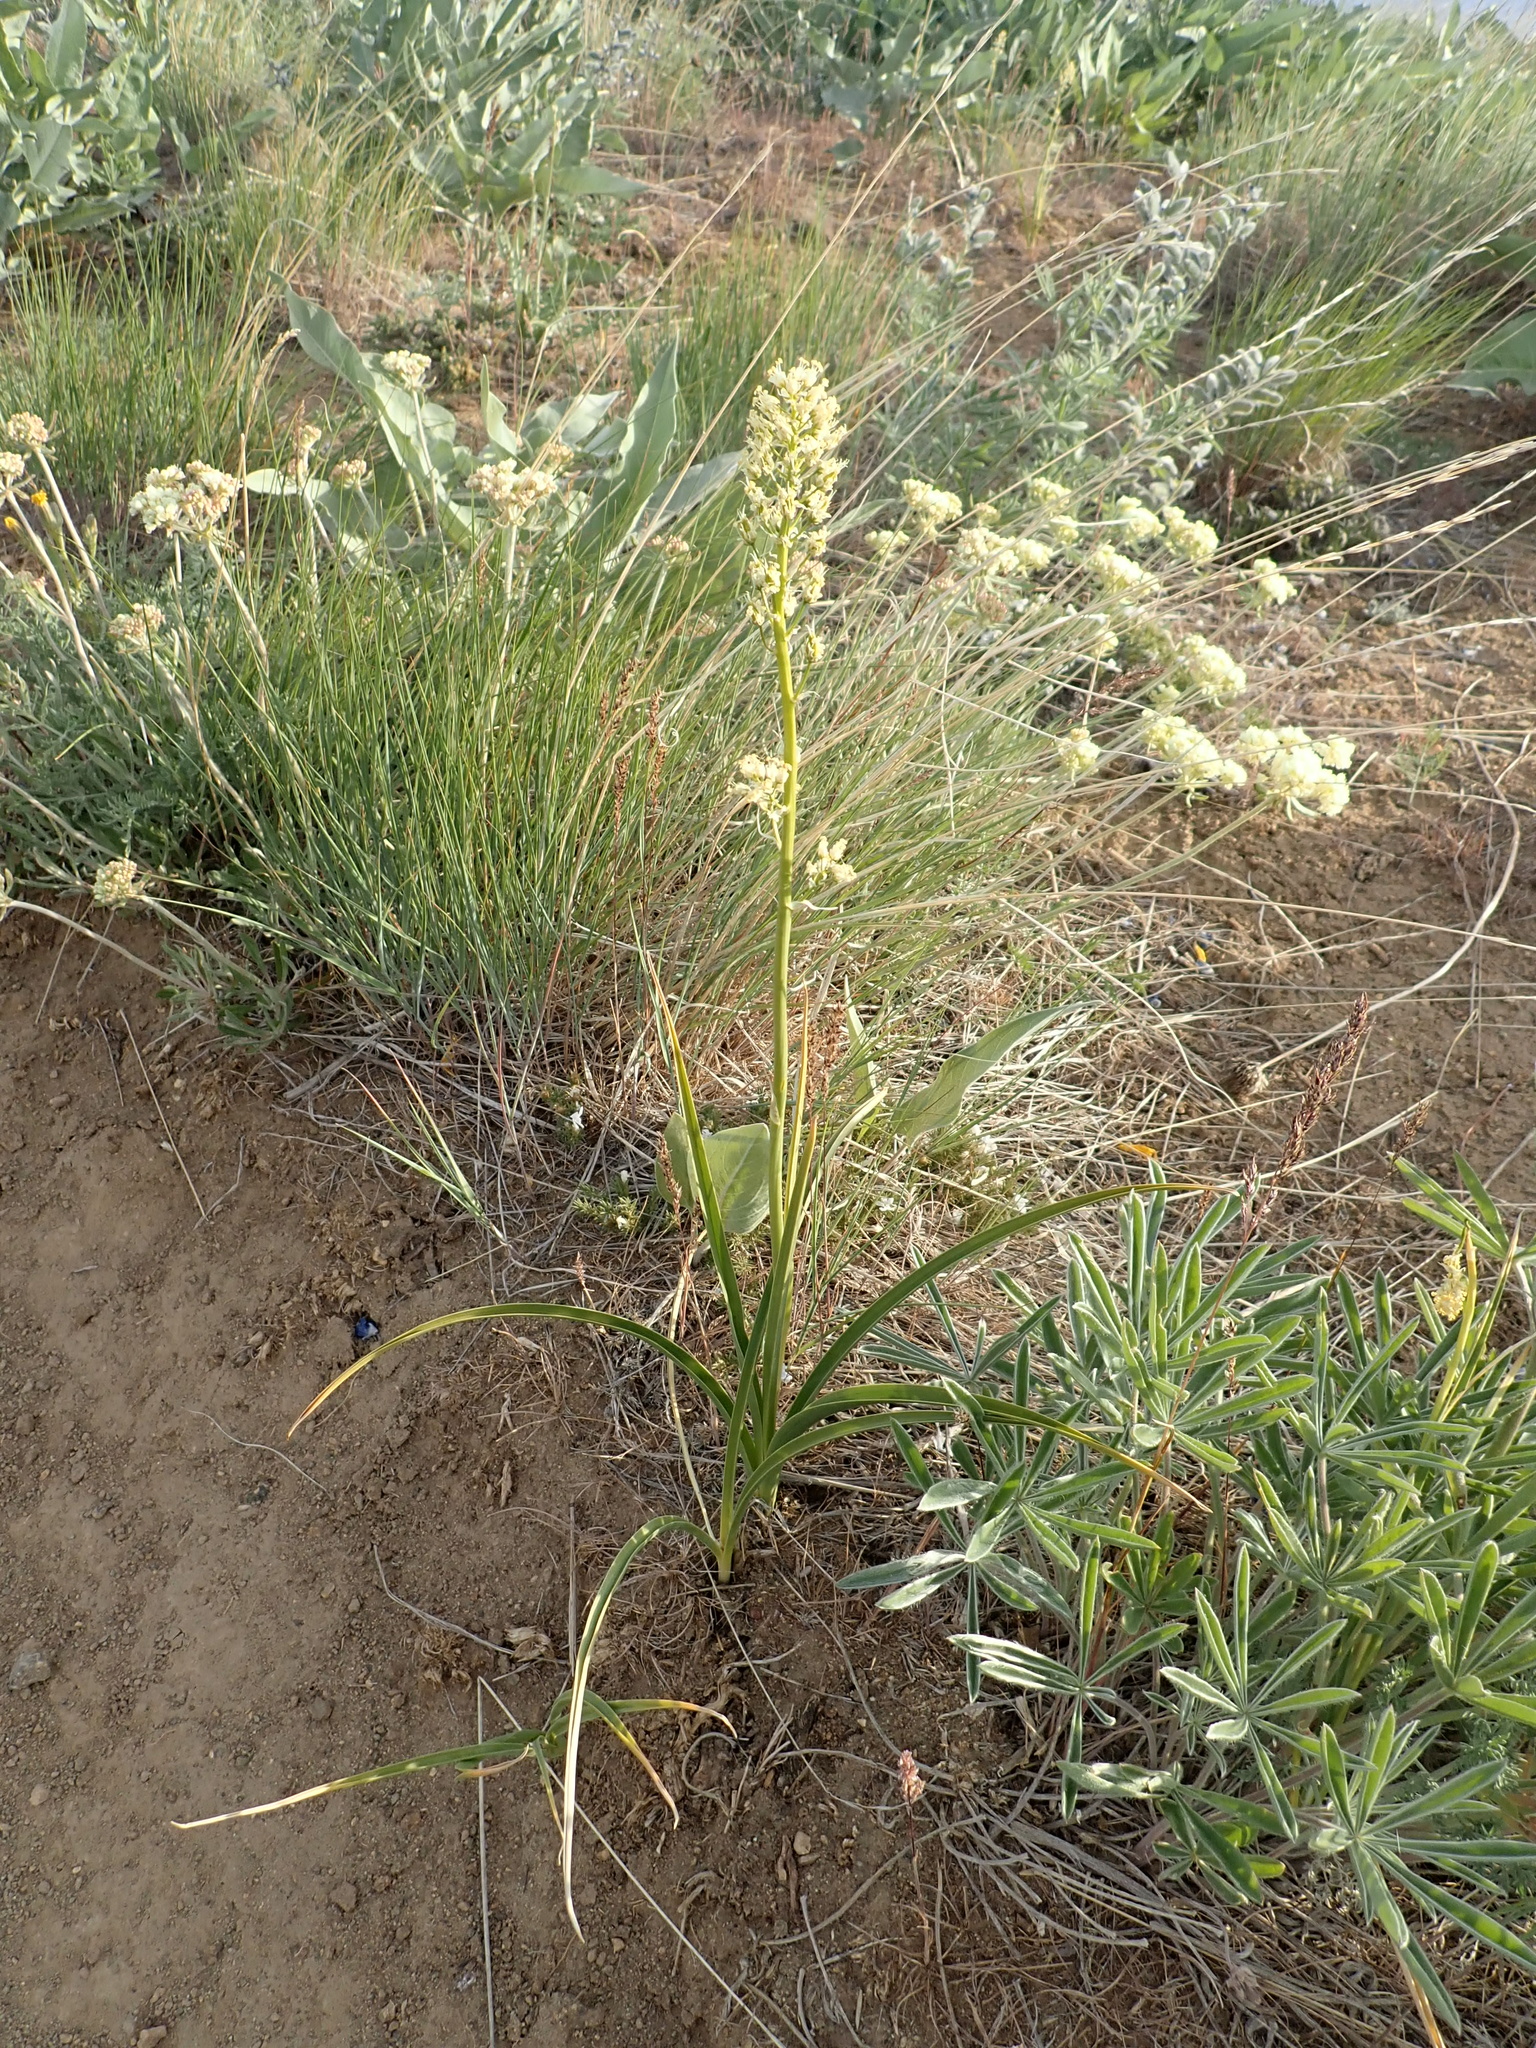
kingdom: Plantae
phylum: Tracheophyta
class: Liliopsida
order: Liliales
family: Melanthiaceae
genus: Toxicoscordion
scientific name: Toxicoscordion paniculatum
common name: Foothill death camas
